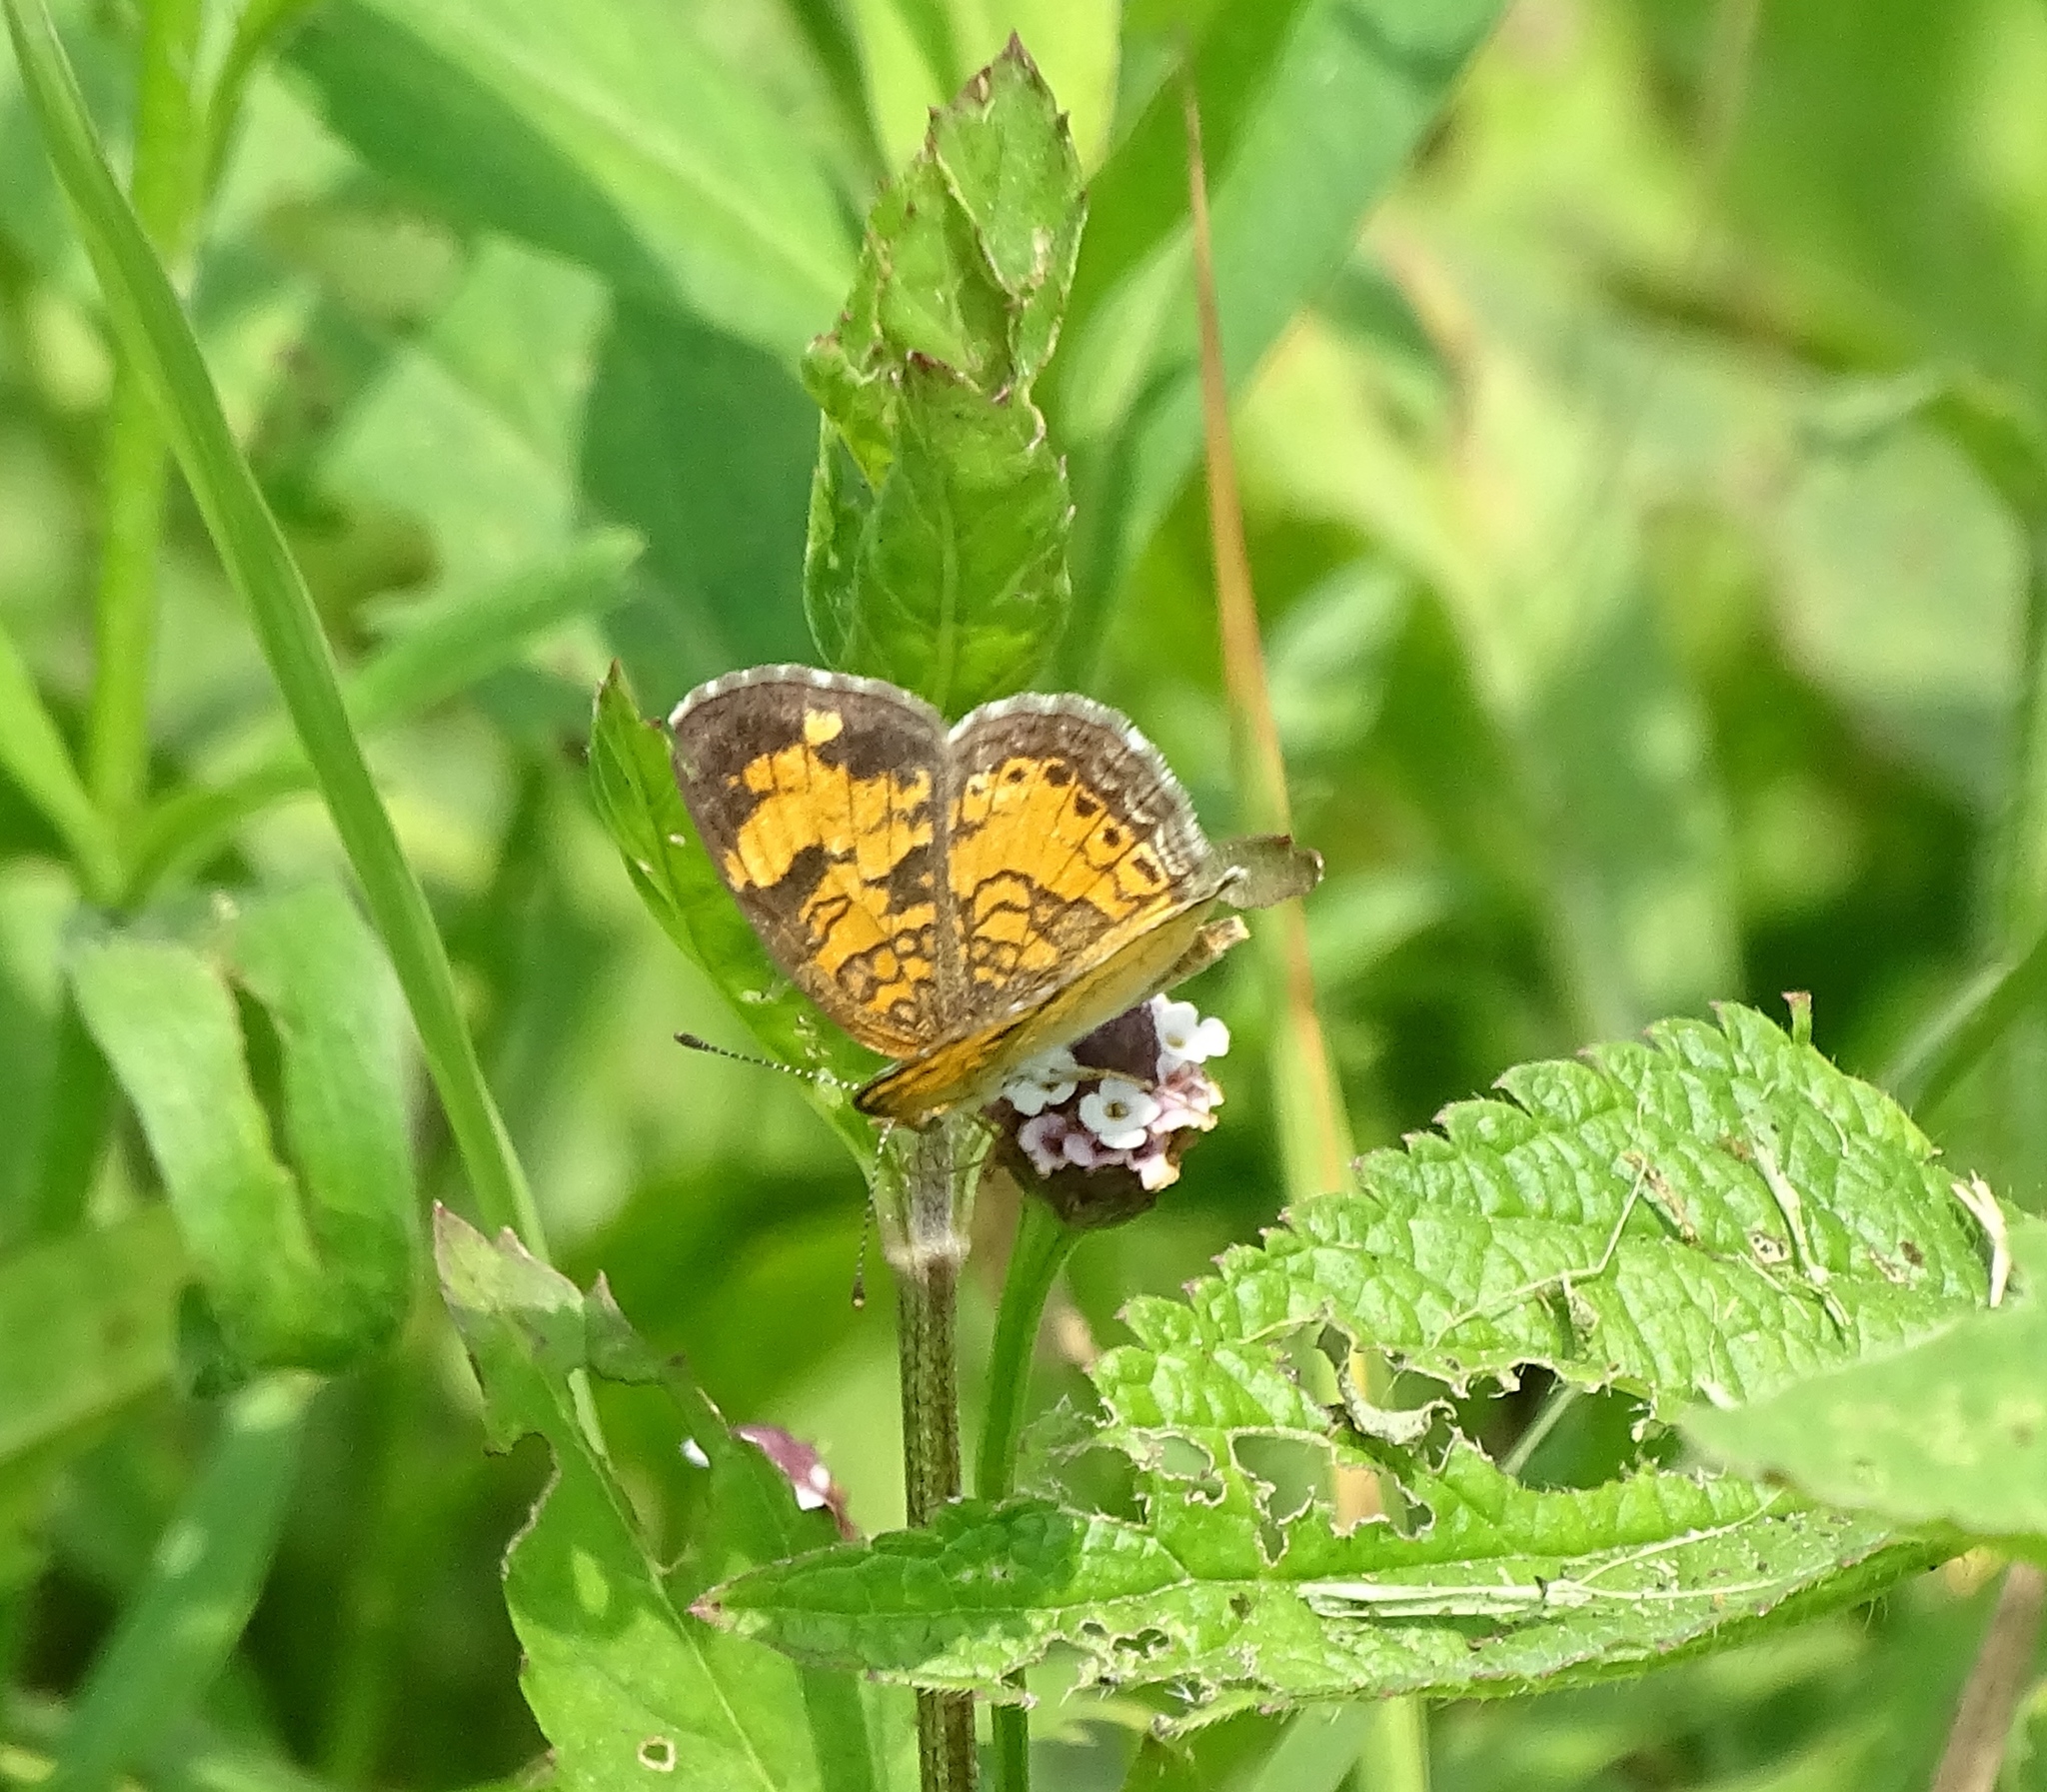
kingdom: Animalia
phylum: Arthropoda
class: Insecta
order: Lepidoptera
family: Nymphalidae
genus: Phyciodes
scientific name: Phyciodes tharos
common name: Pearl crescent
